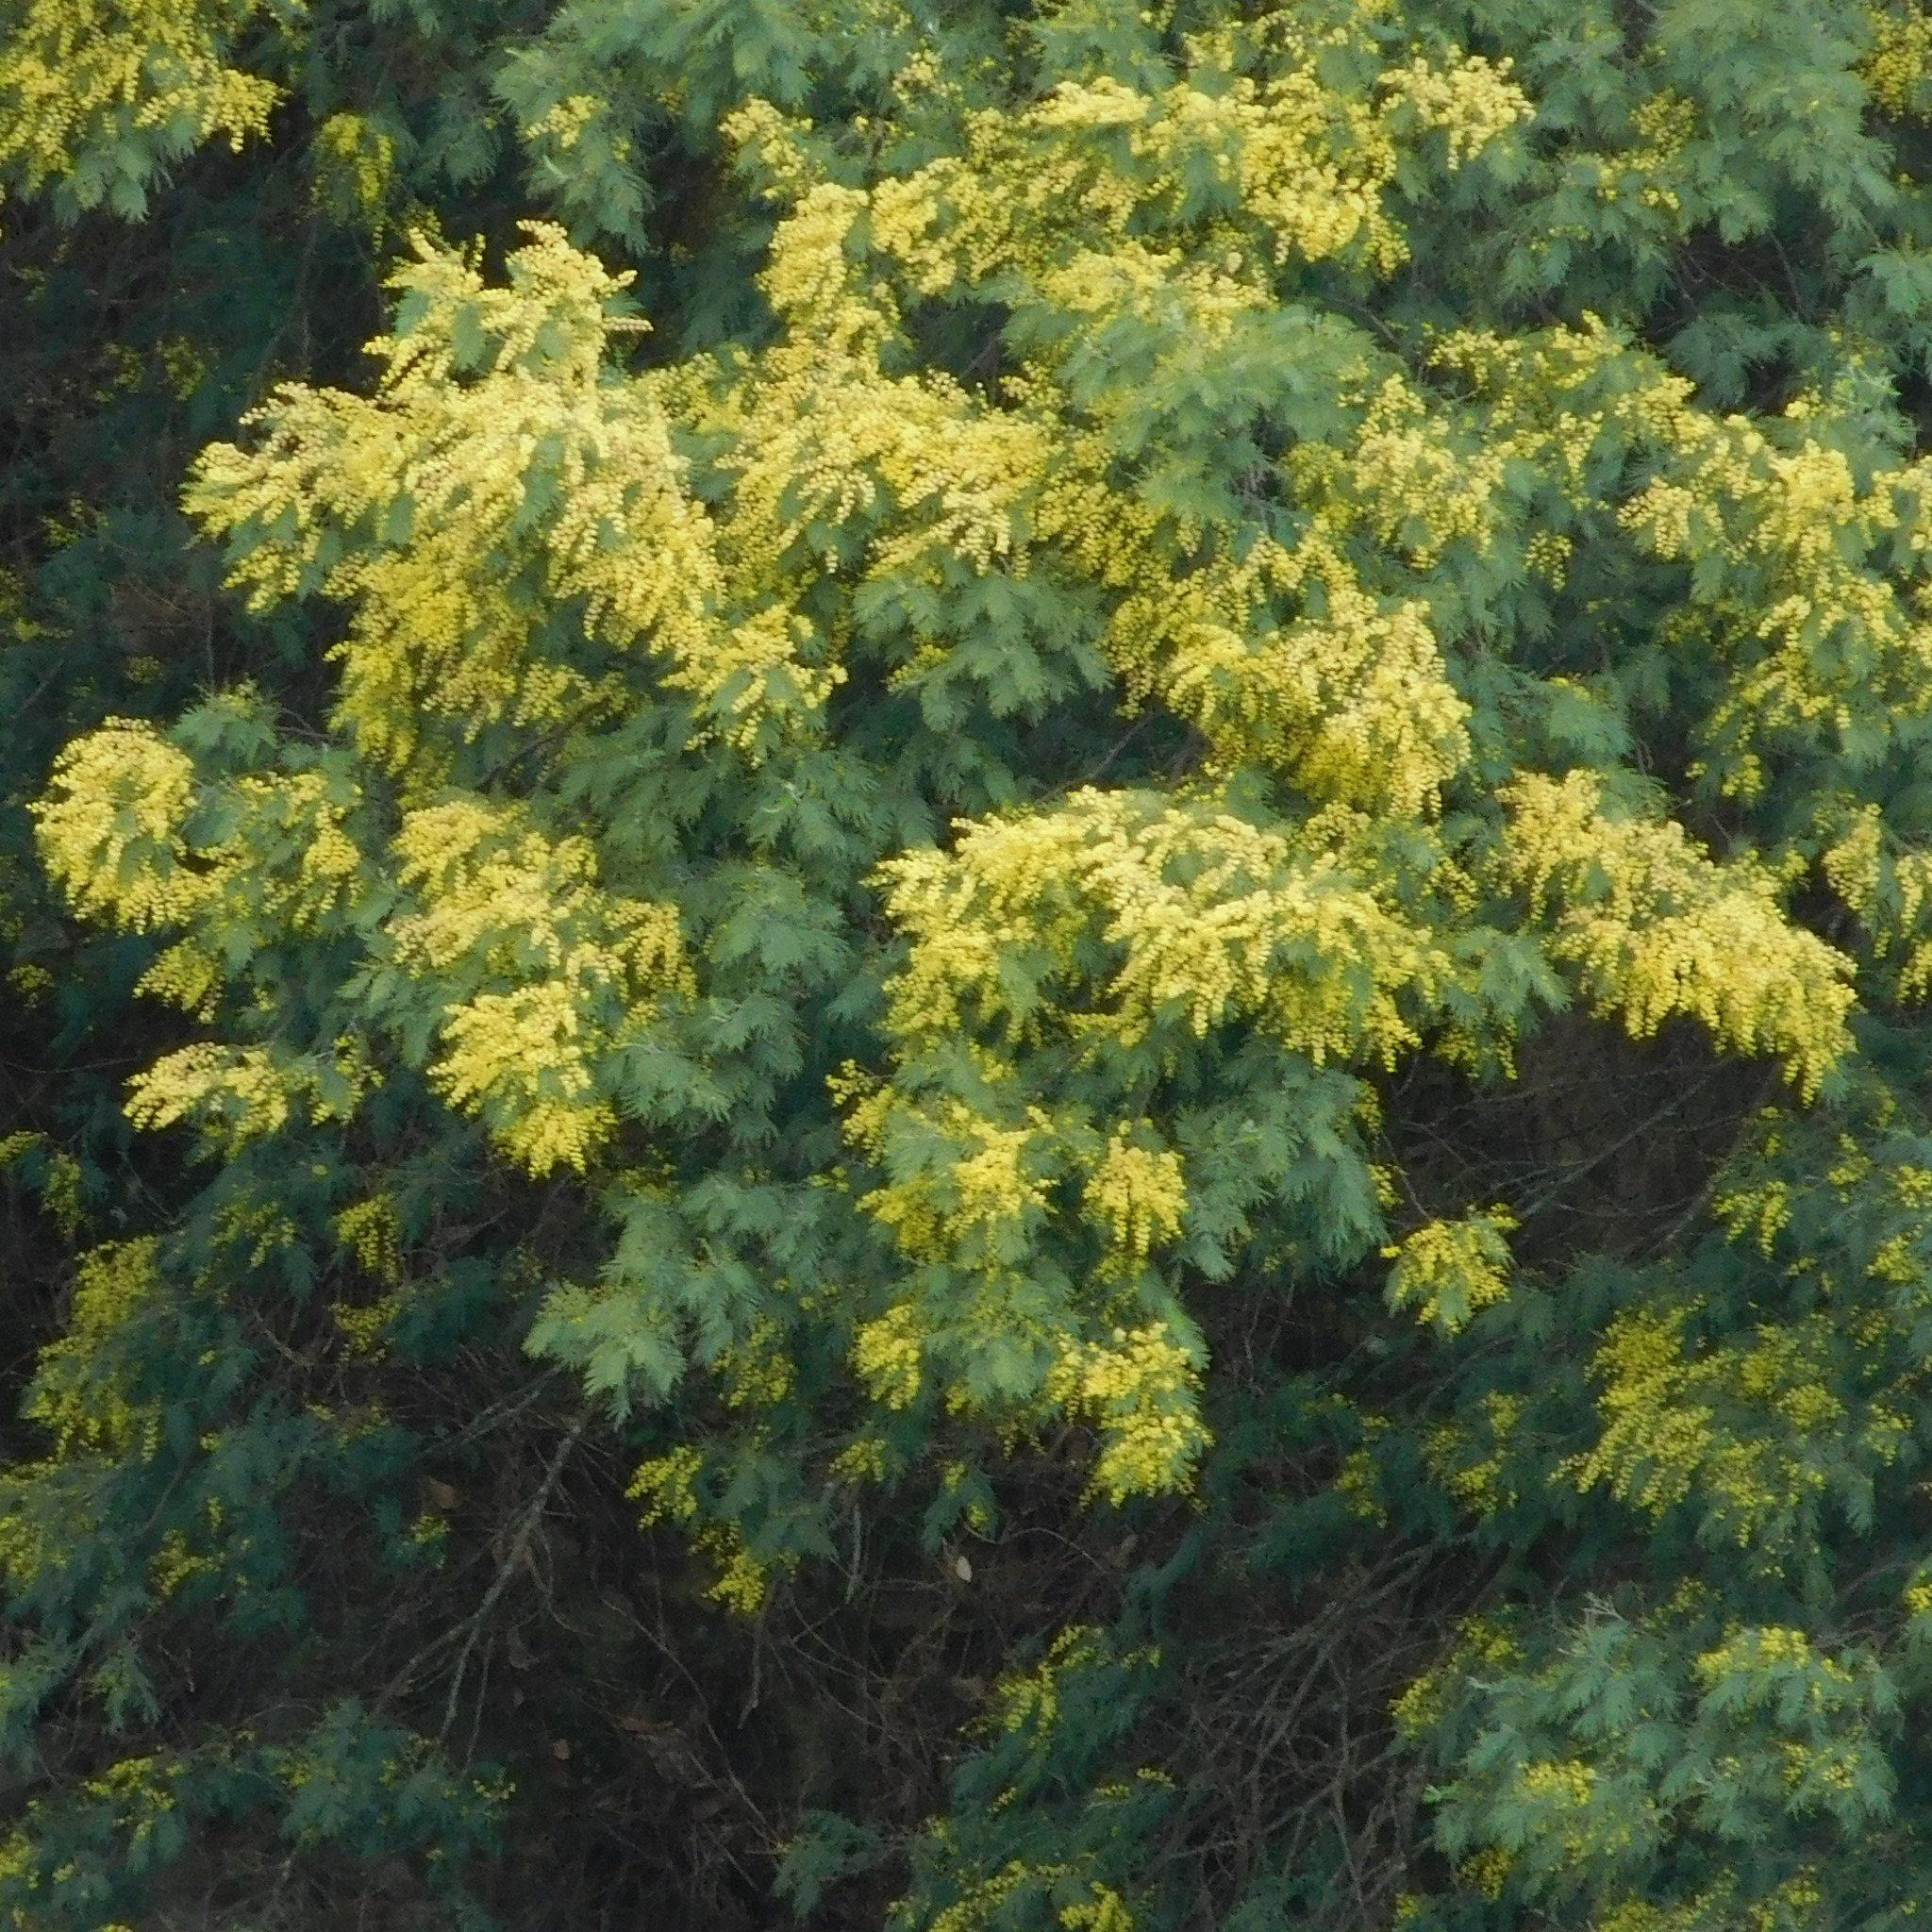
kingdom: Plantae
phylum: Tracheophyta
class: Magnoliopsida
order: Fabales
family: Fabaceae
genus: Acacia
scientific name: Acacia dealbata
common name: Silver wattle
